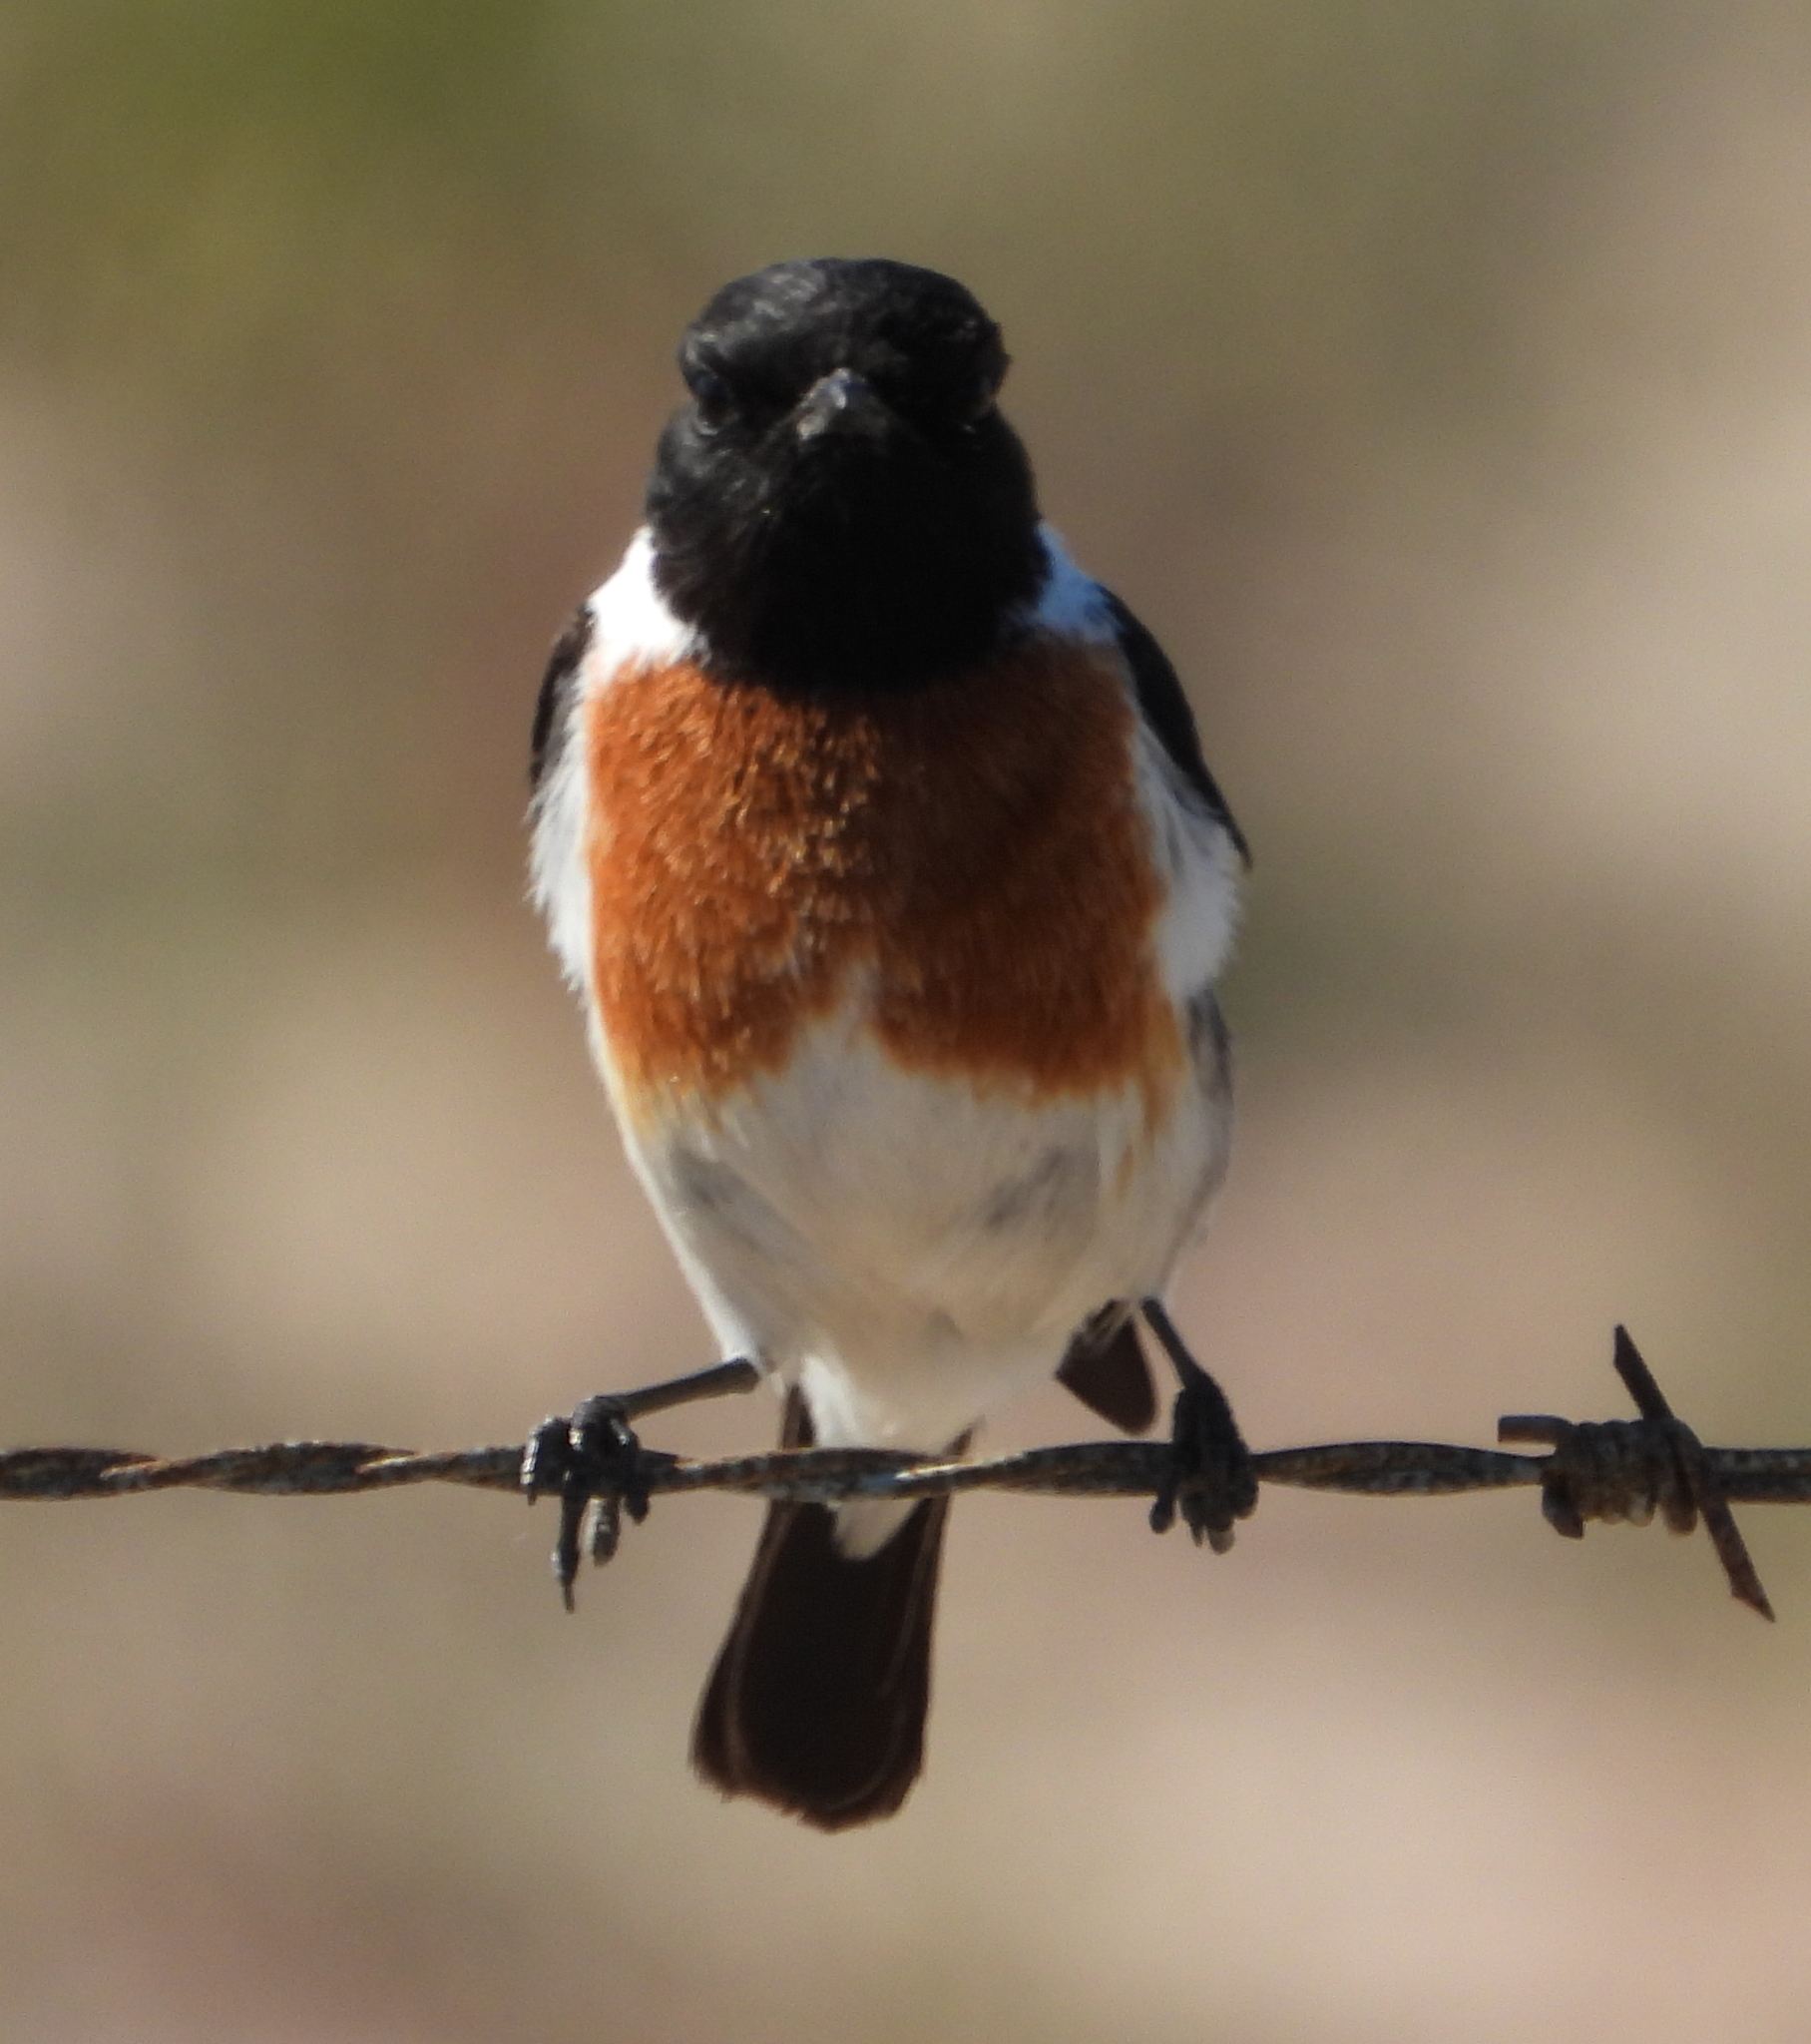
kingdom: Animalia
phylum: Chordata
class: Aves
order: Passeriformes
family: Muscicapidae
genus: Saxicola
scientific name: Saxicola torquatus
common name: African stonechat
